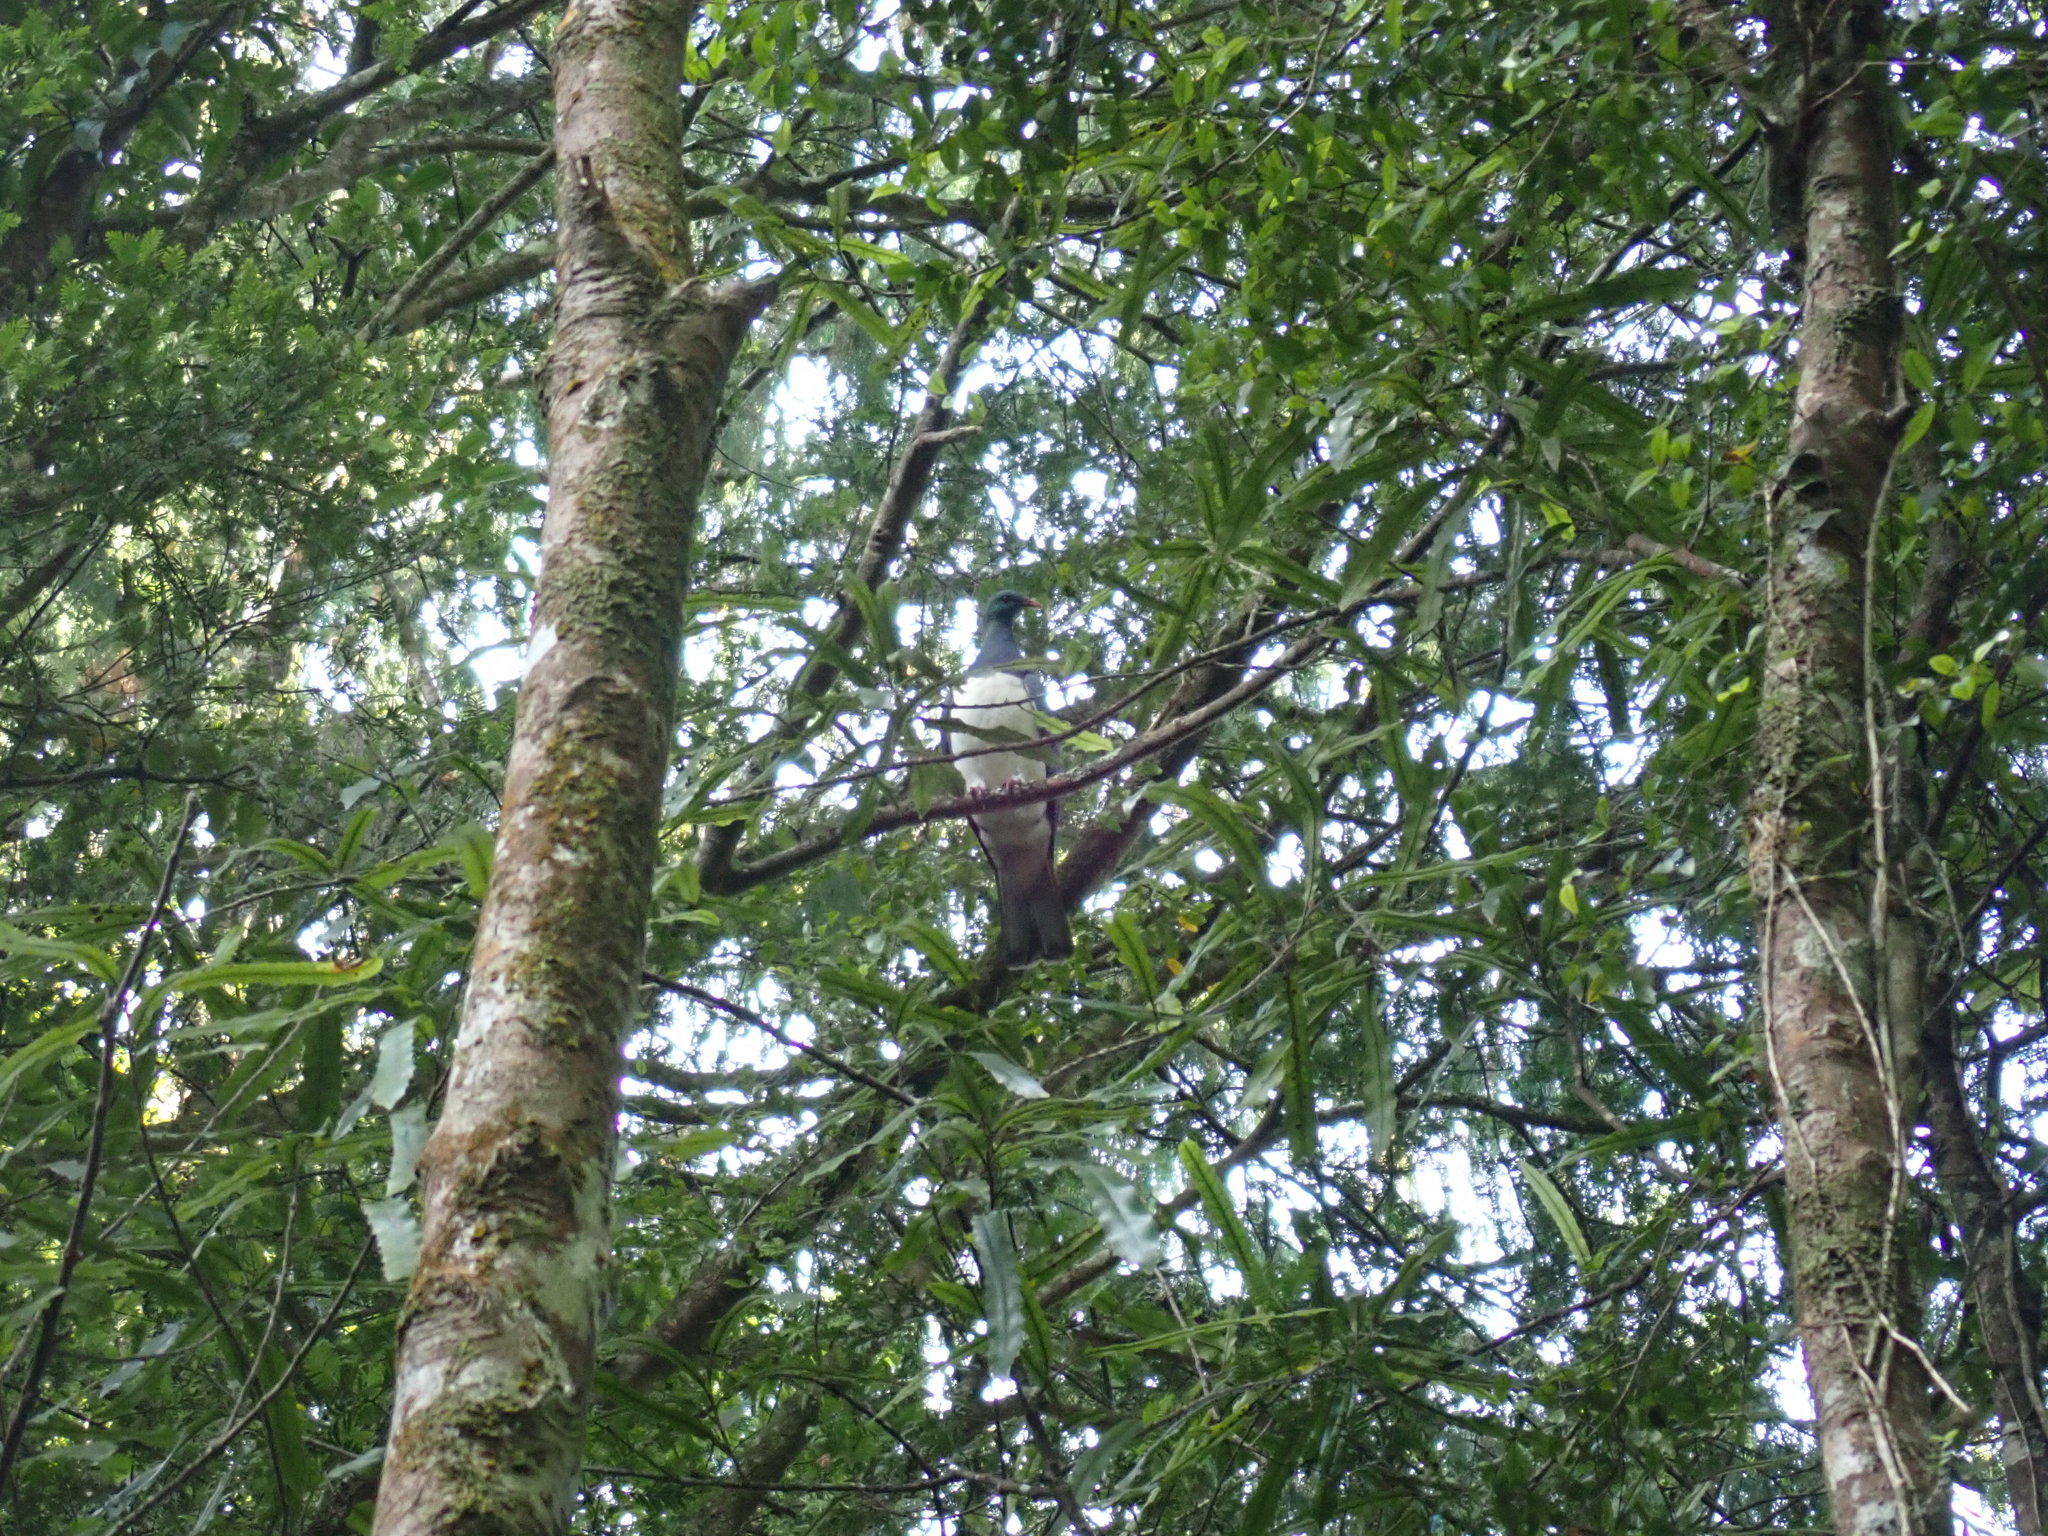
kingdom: Animalia
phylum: Chordata
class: Aves
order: Columbiformes
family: Columbidae
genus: Hemiphaga
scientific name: Hemiphaga novaeseelandiae
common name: New zealand pigeon
